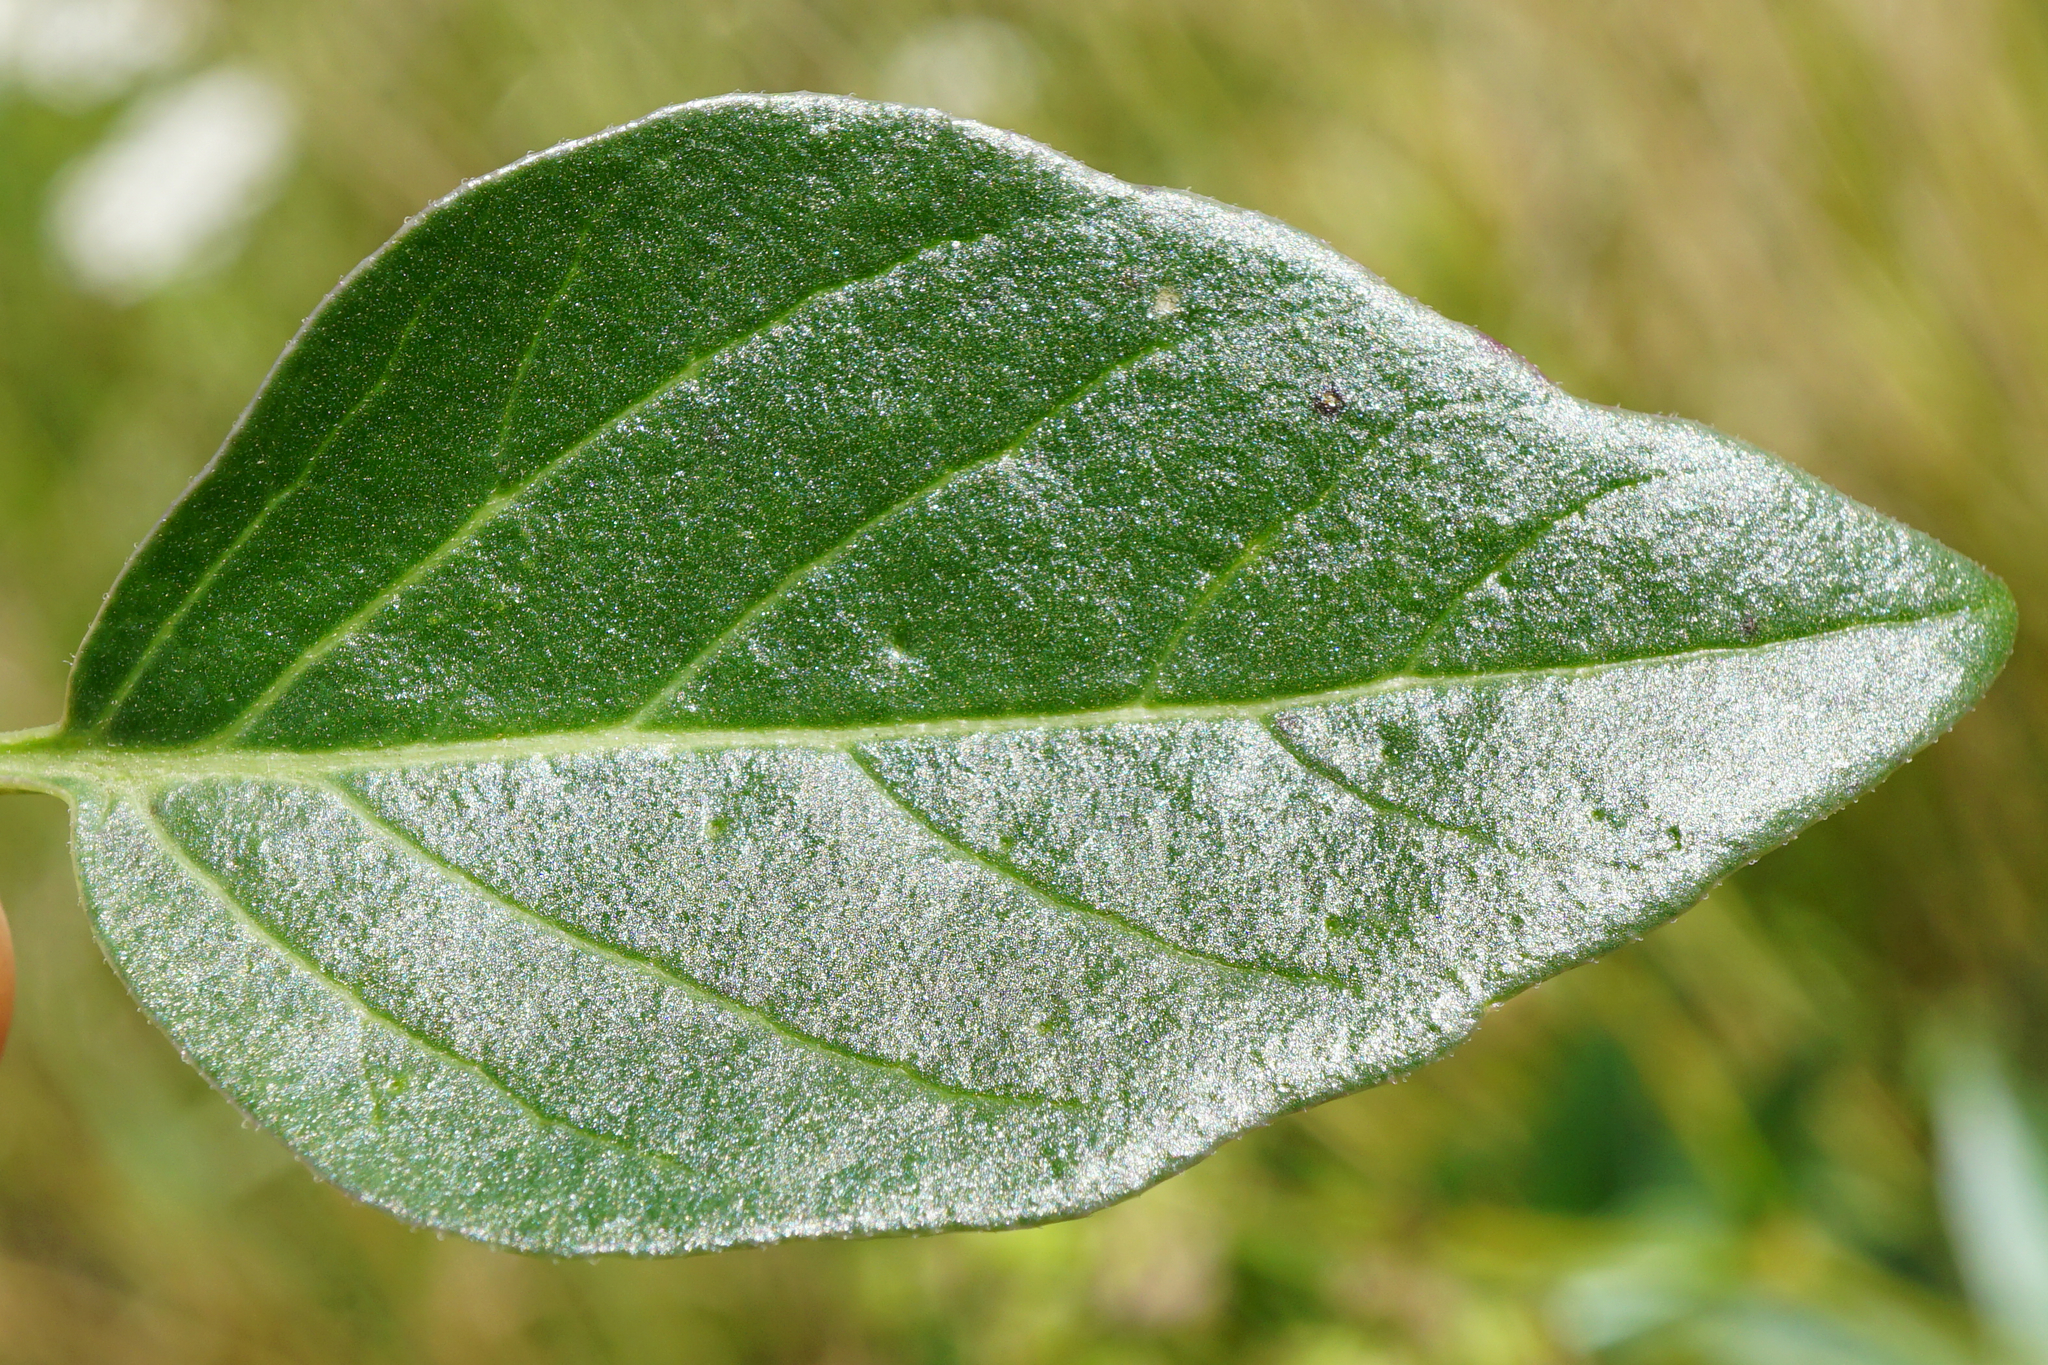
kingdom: Plantae
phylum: Tracheophyta
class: Magnoliopsida
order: Caryophyllales
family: Nyctaginaceae
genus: Mirabilis
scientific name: Mirabilis nyctaginea
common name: Umbrella wort
